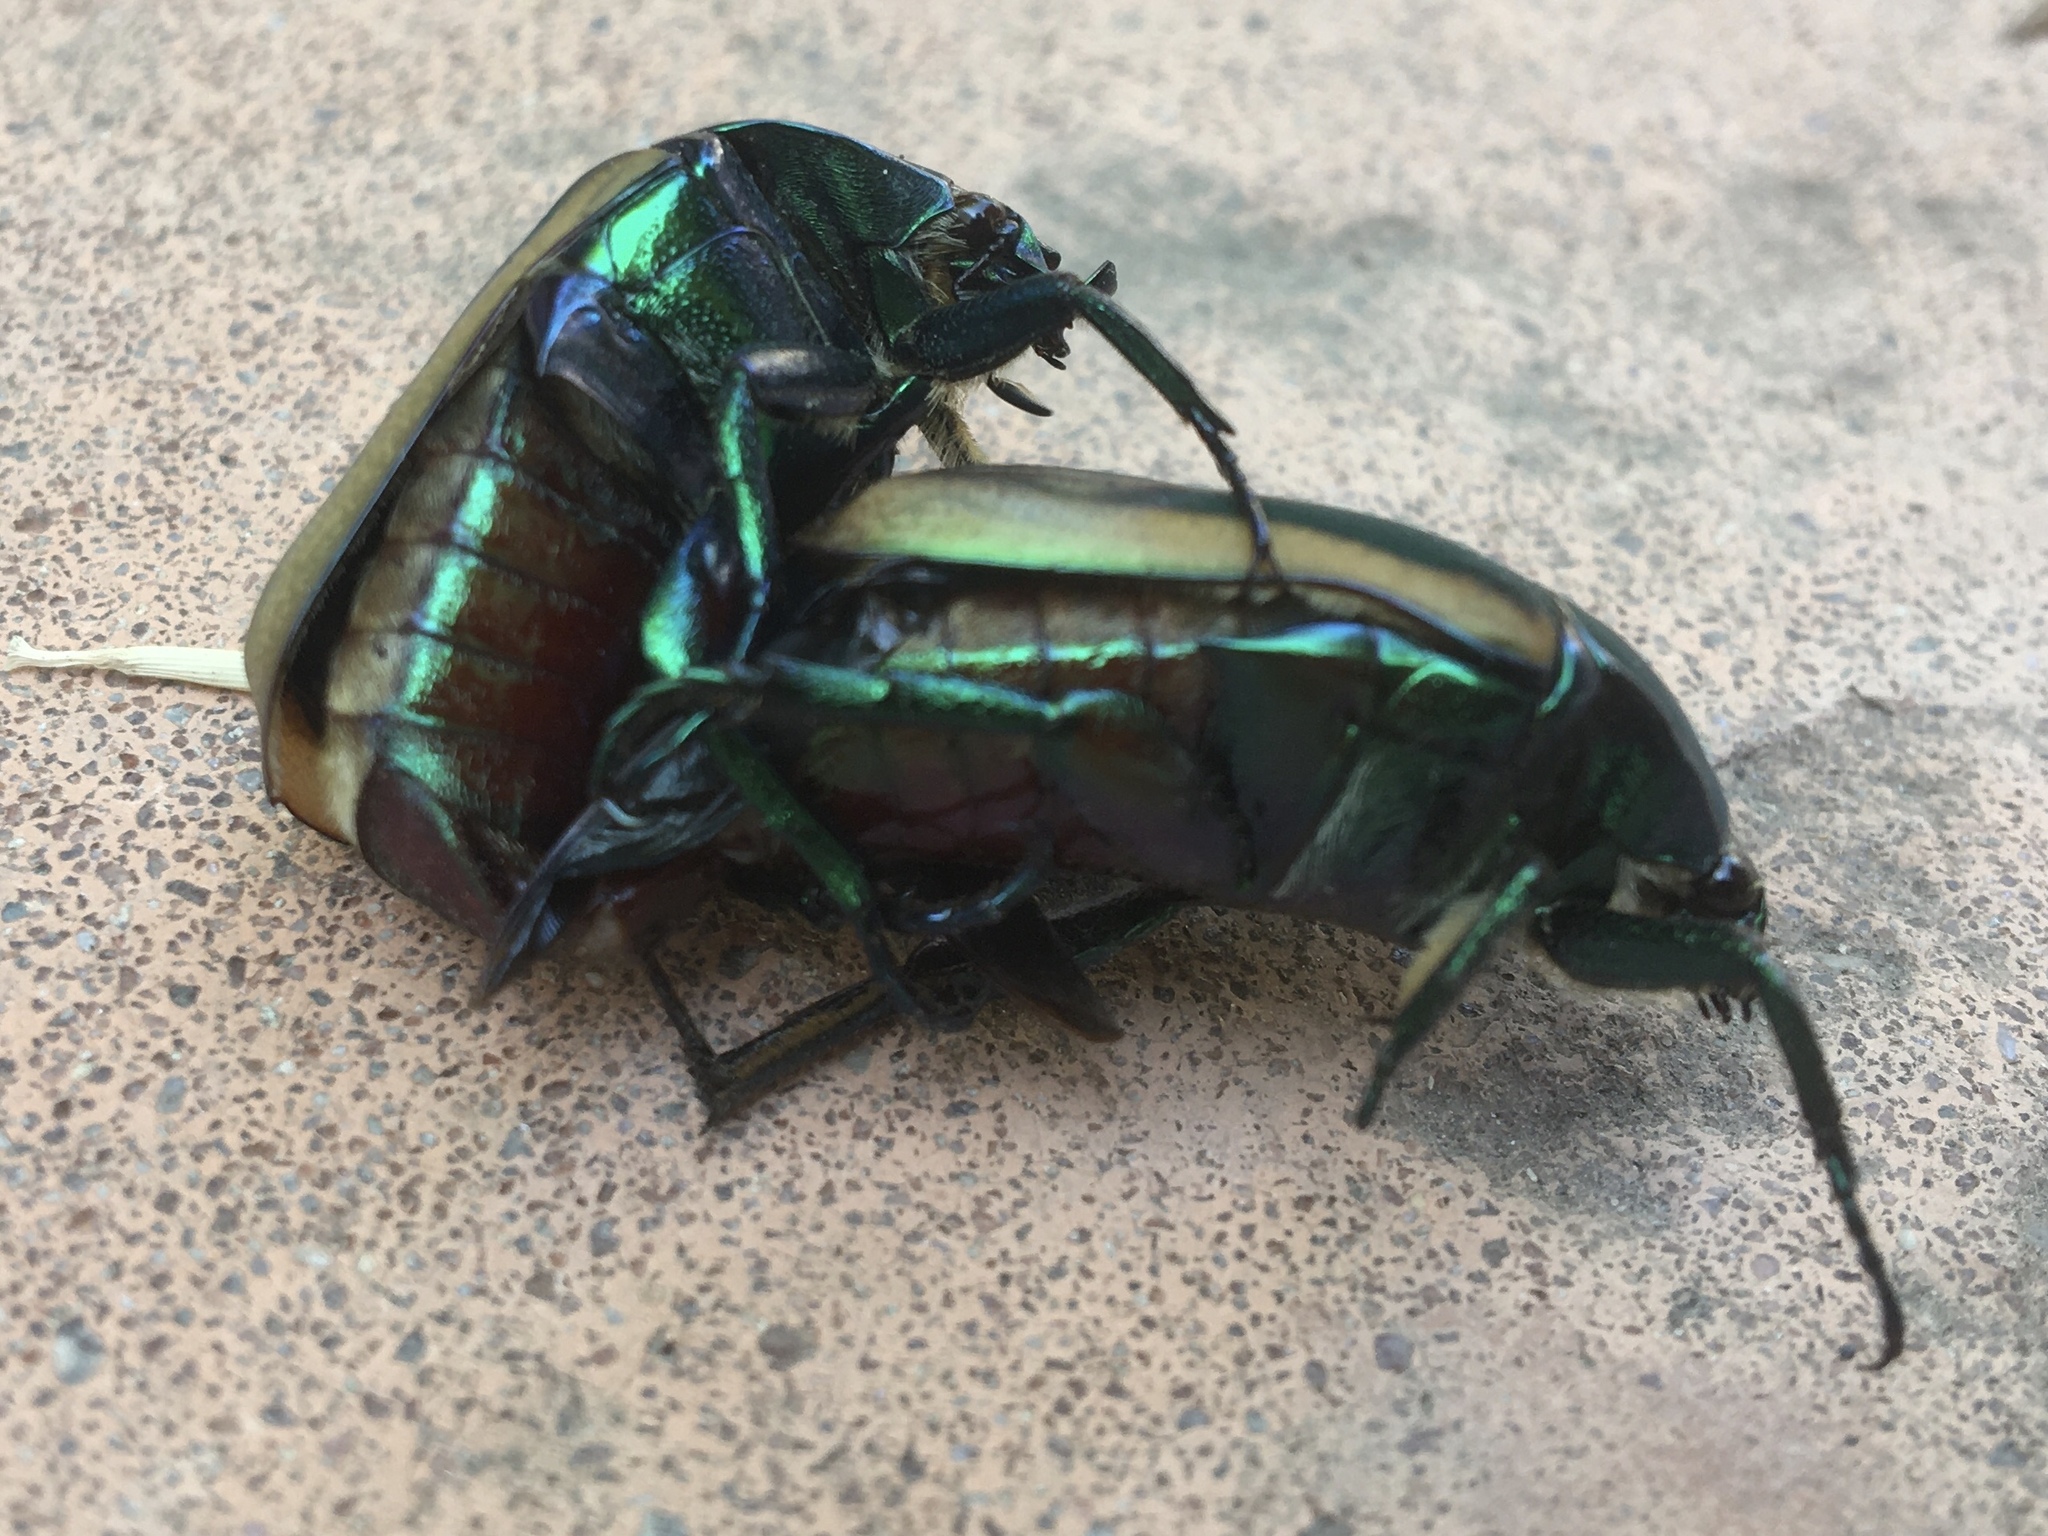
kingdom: Animalia
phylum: Arthropoda
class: Insecta
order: Coleoptera
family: Scarabaeidae
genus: Cotinis
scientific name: Cotinis mutabilis
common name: Figeater beetle
